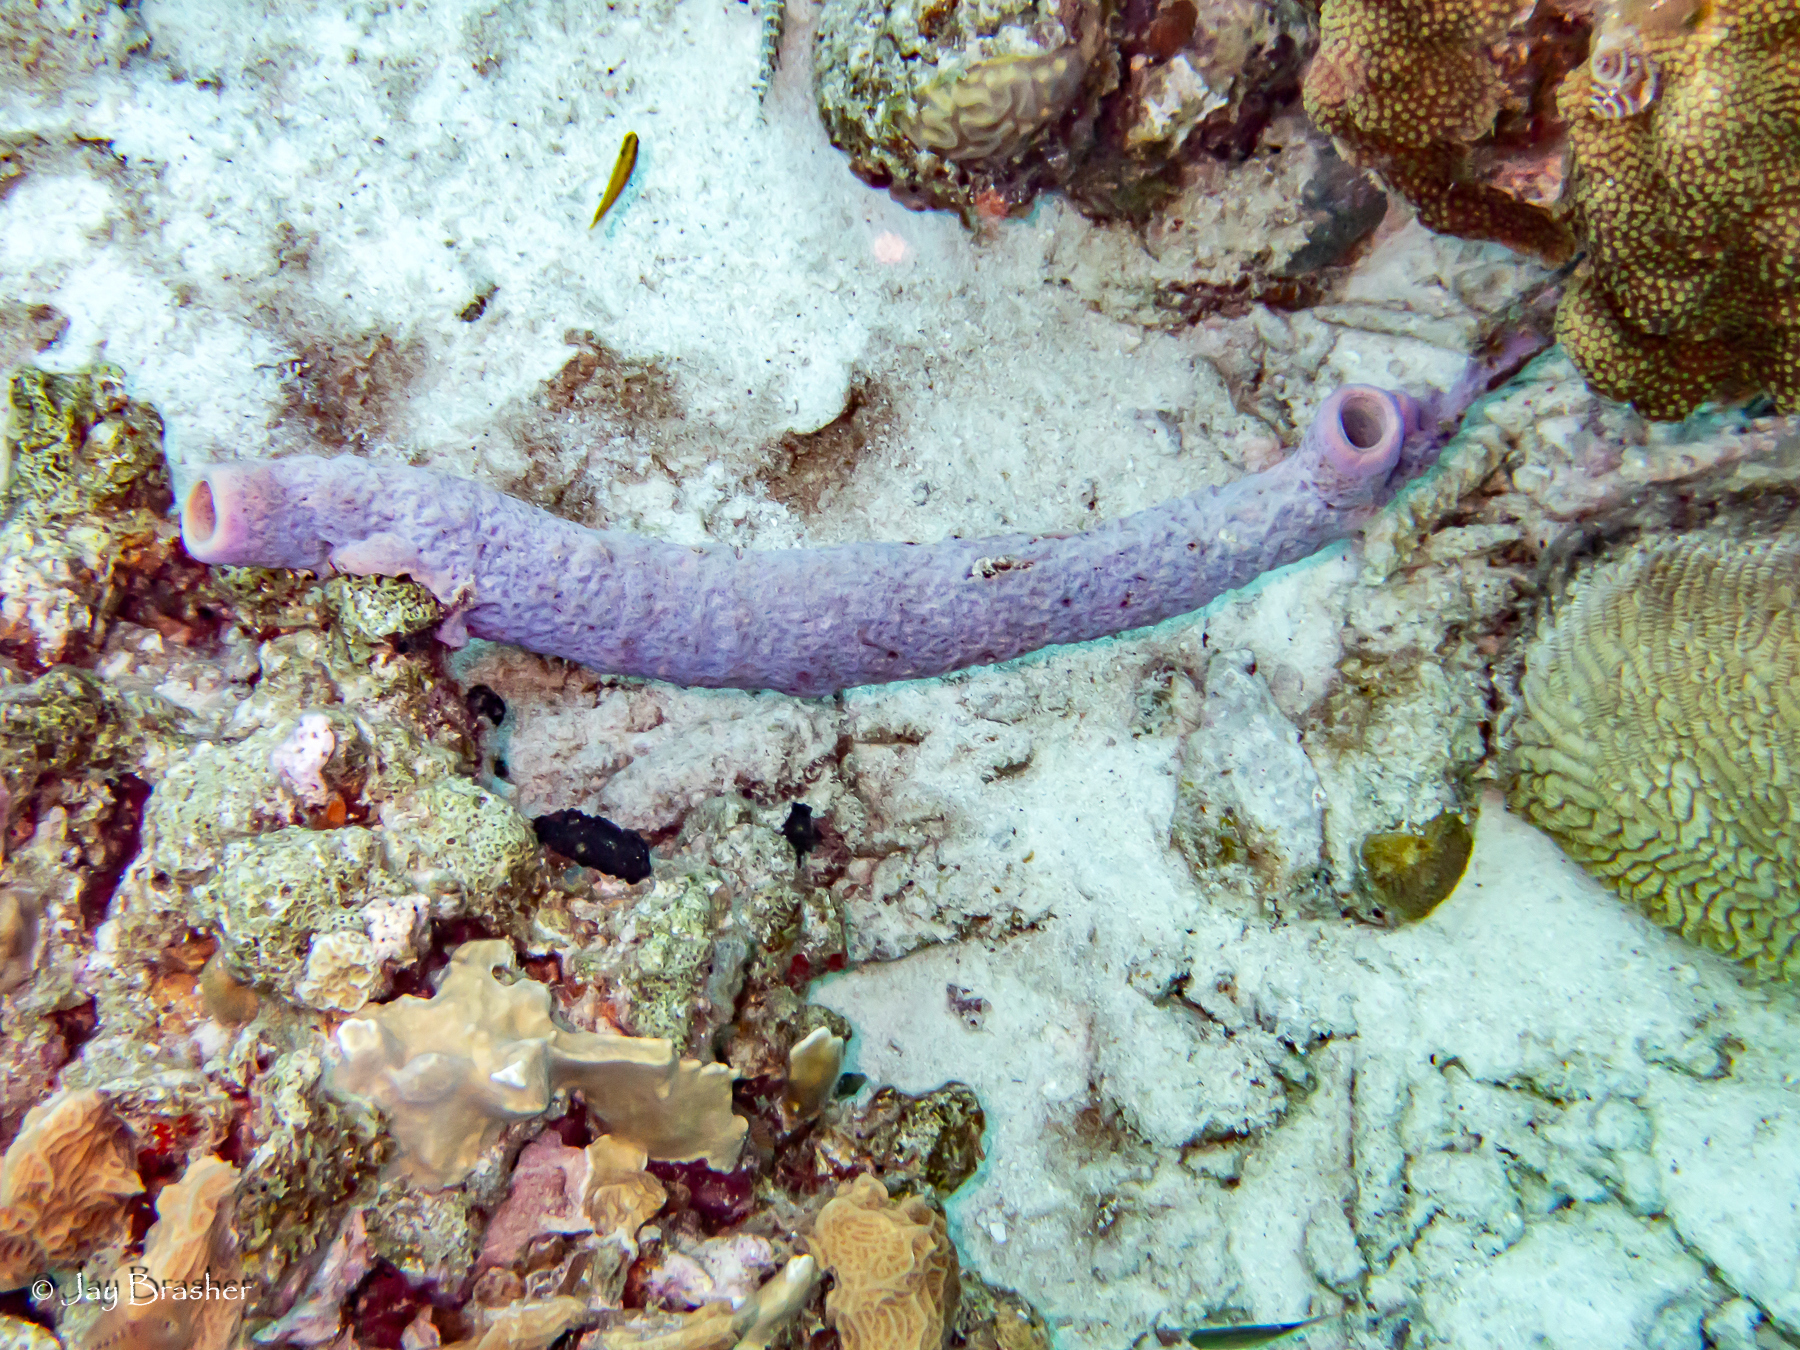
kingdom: Animalia
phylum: Porifera
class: Demospongiae
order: Verongiida
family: Aplysinidae
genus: Aplysina
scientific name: Aplysina archeri
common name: Stove-pipe sponge
